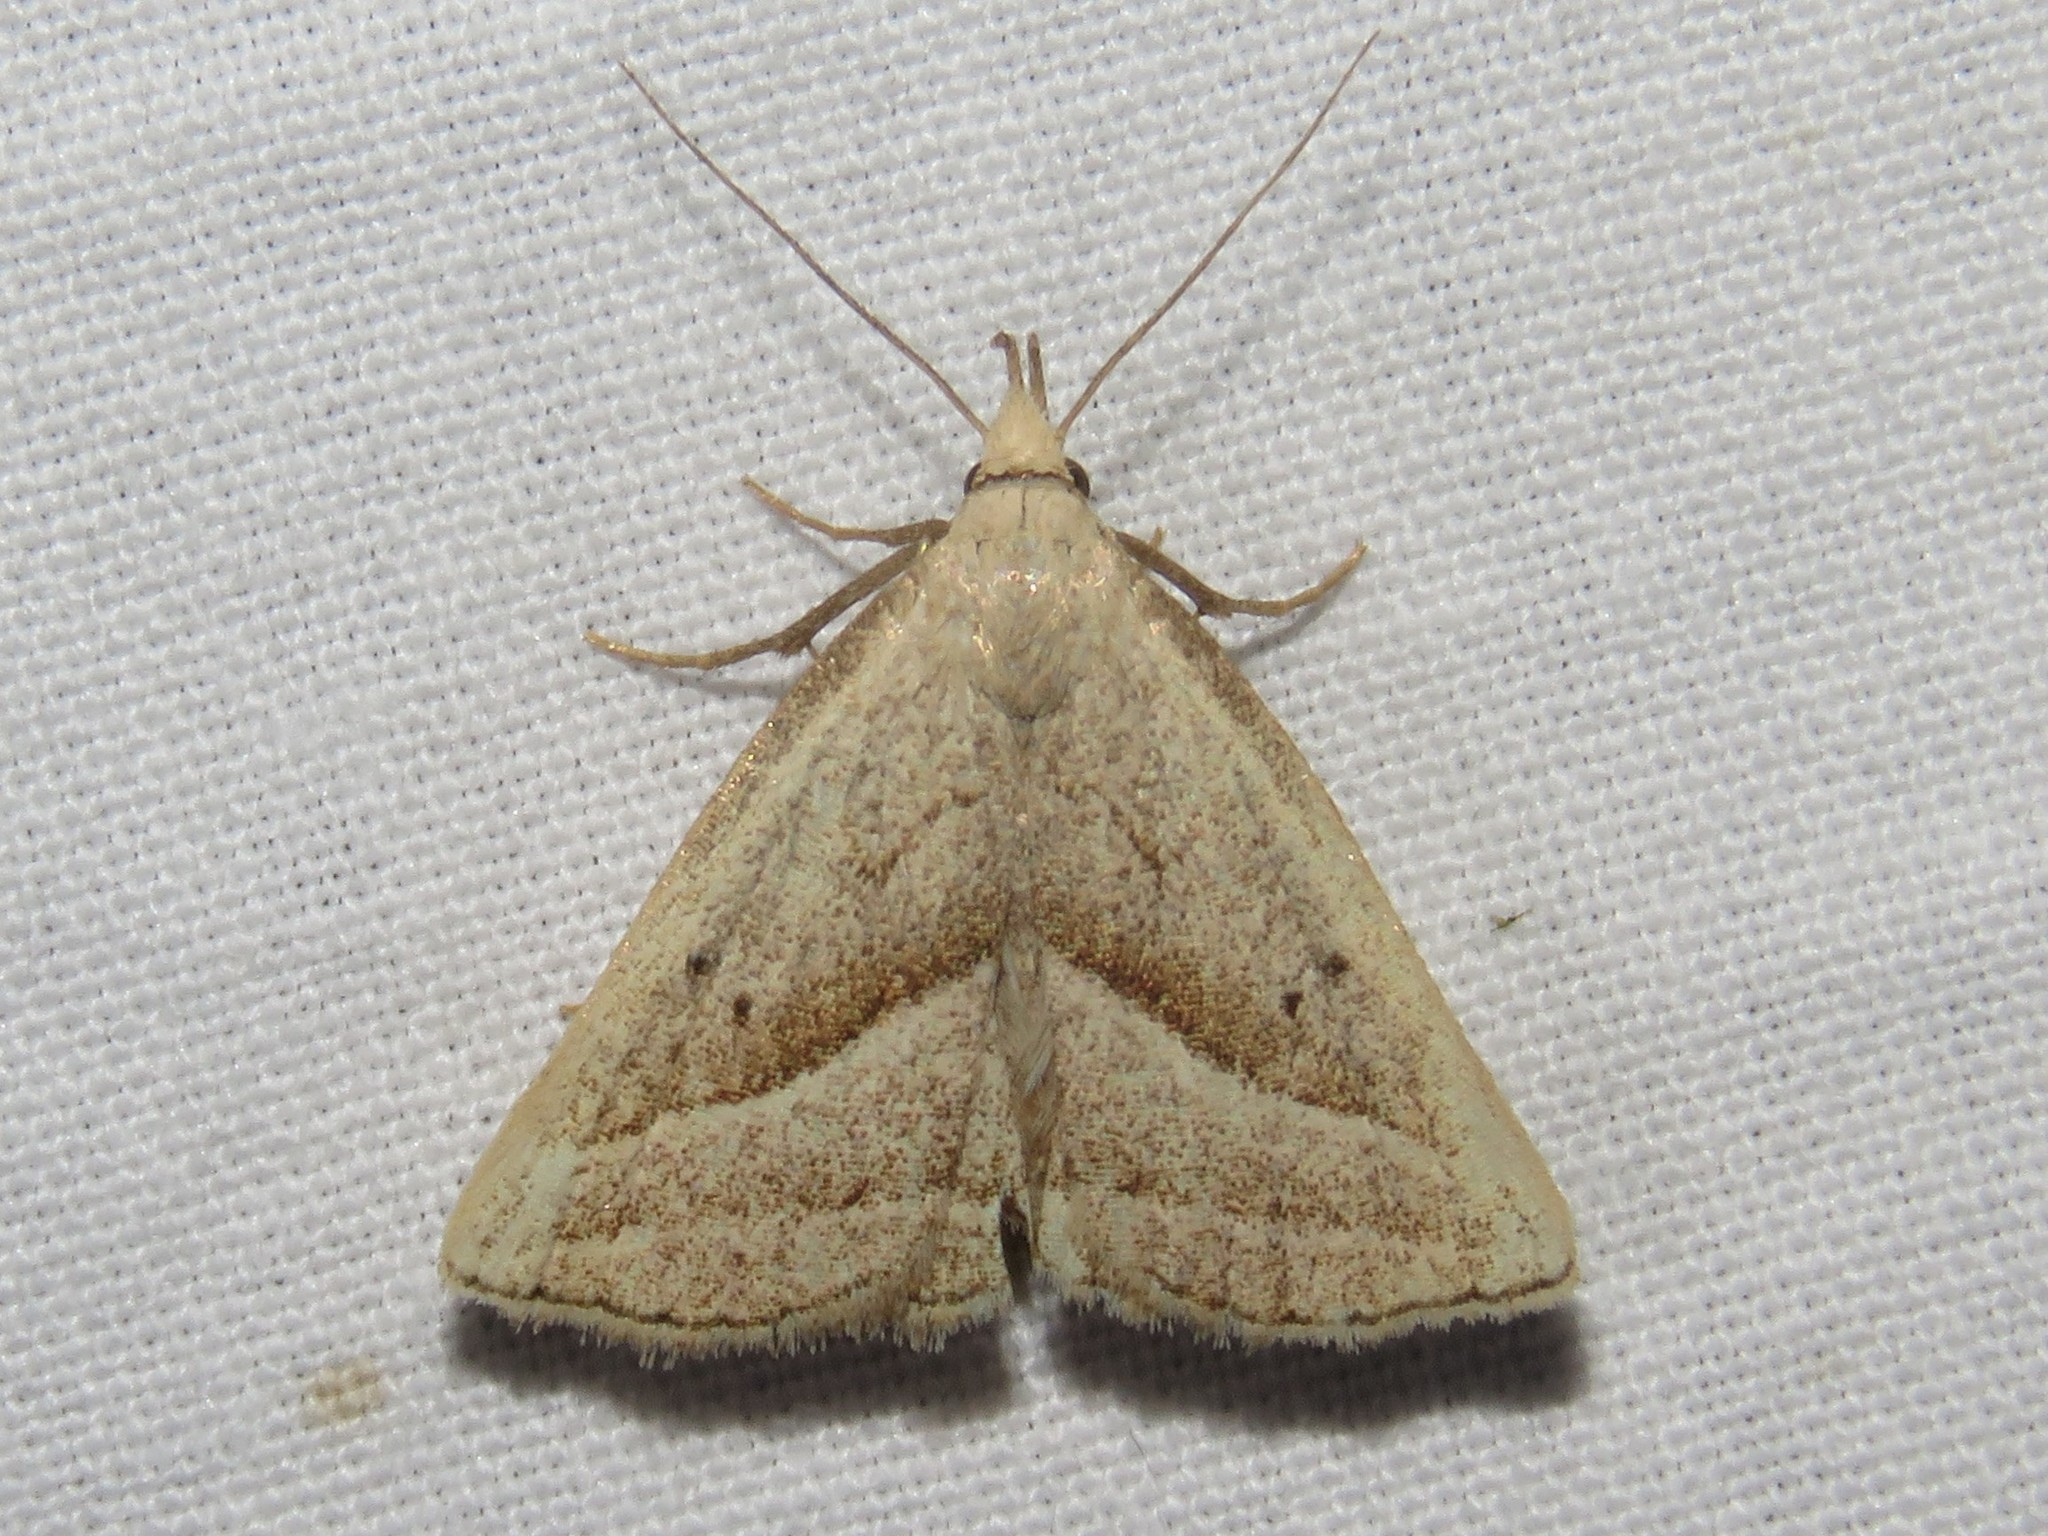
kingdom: Animalia
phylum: Arthropoda
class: Insecta
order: Lepidoptera
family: Erebidae
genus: Macrochilo
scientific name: Macrochilo absorptalis
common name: Slant-lined owlet
